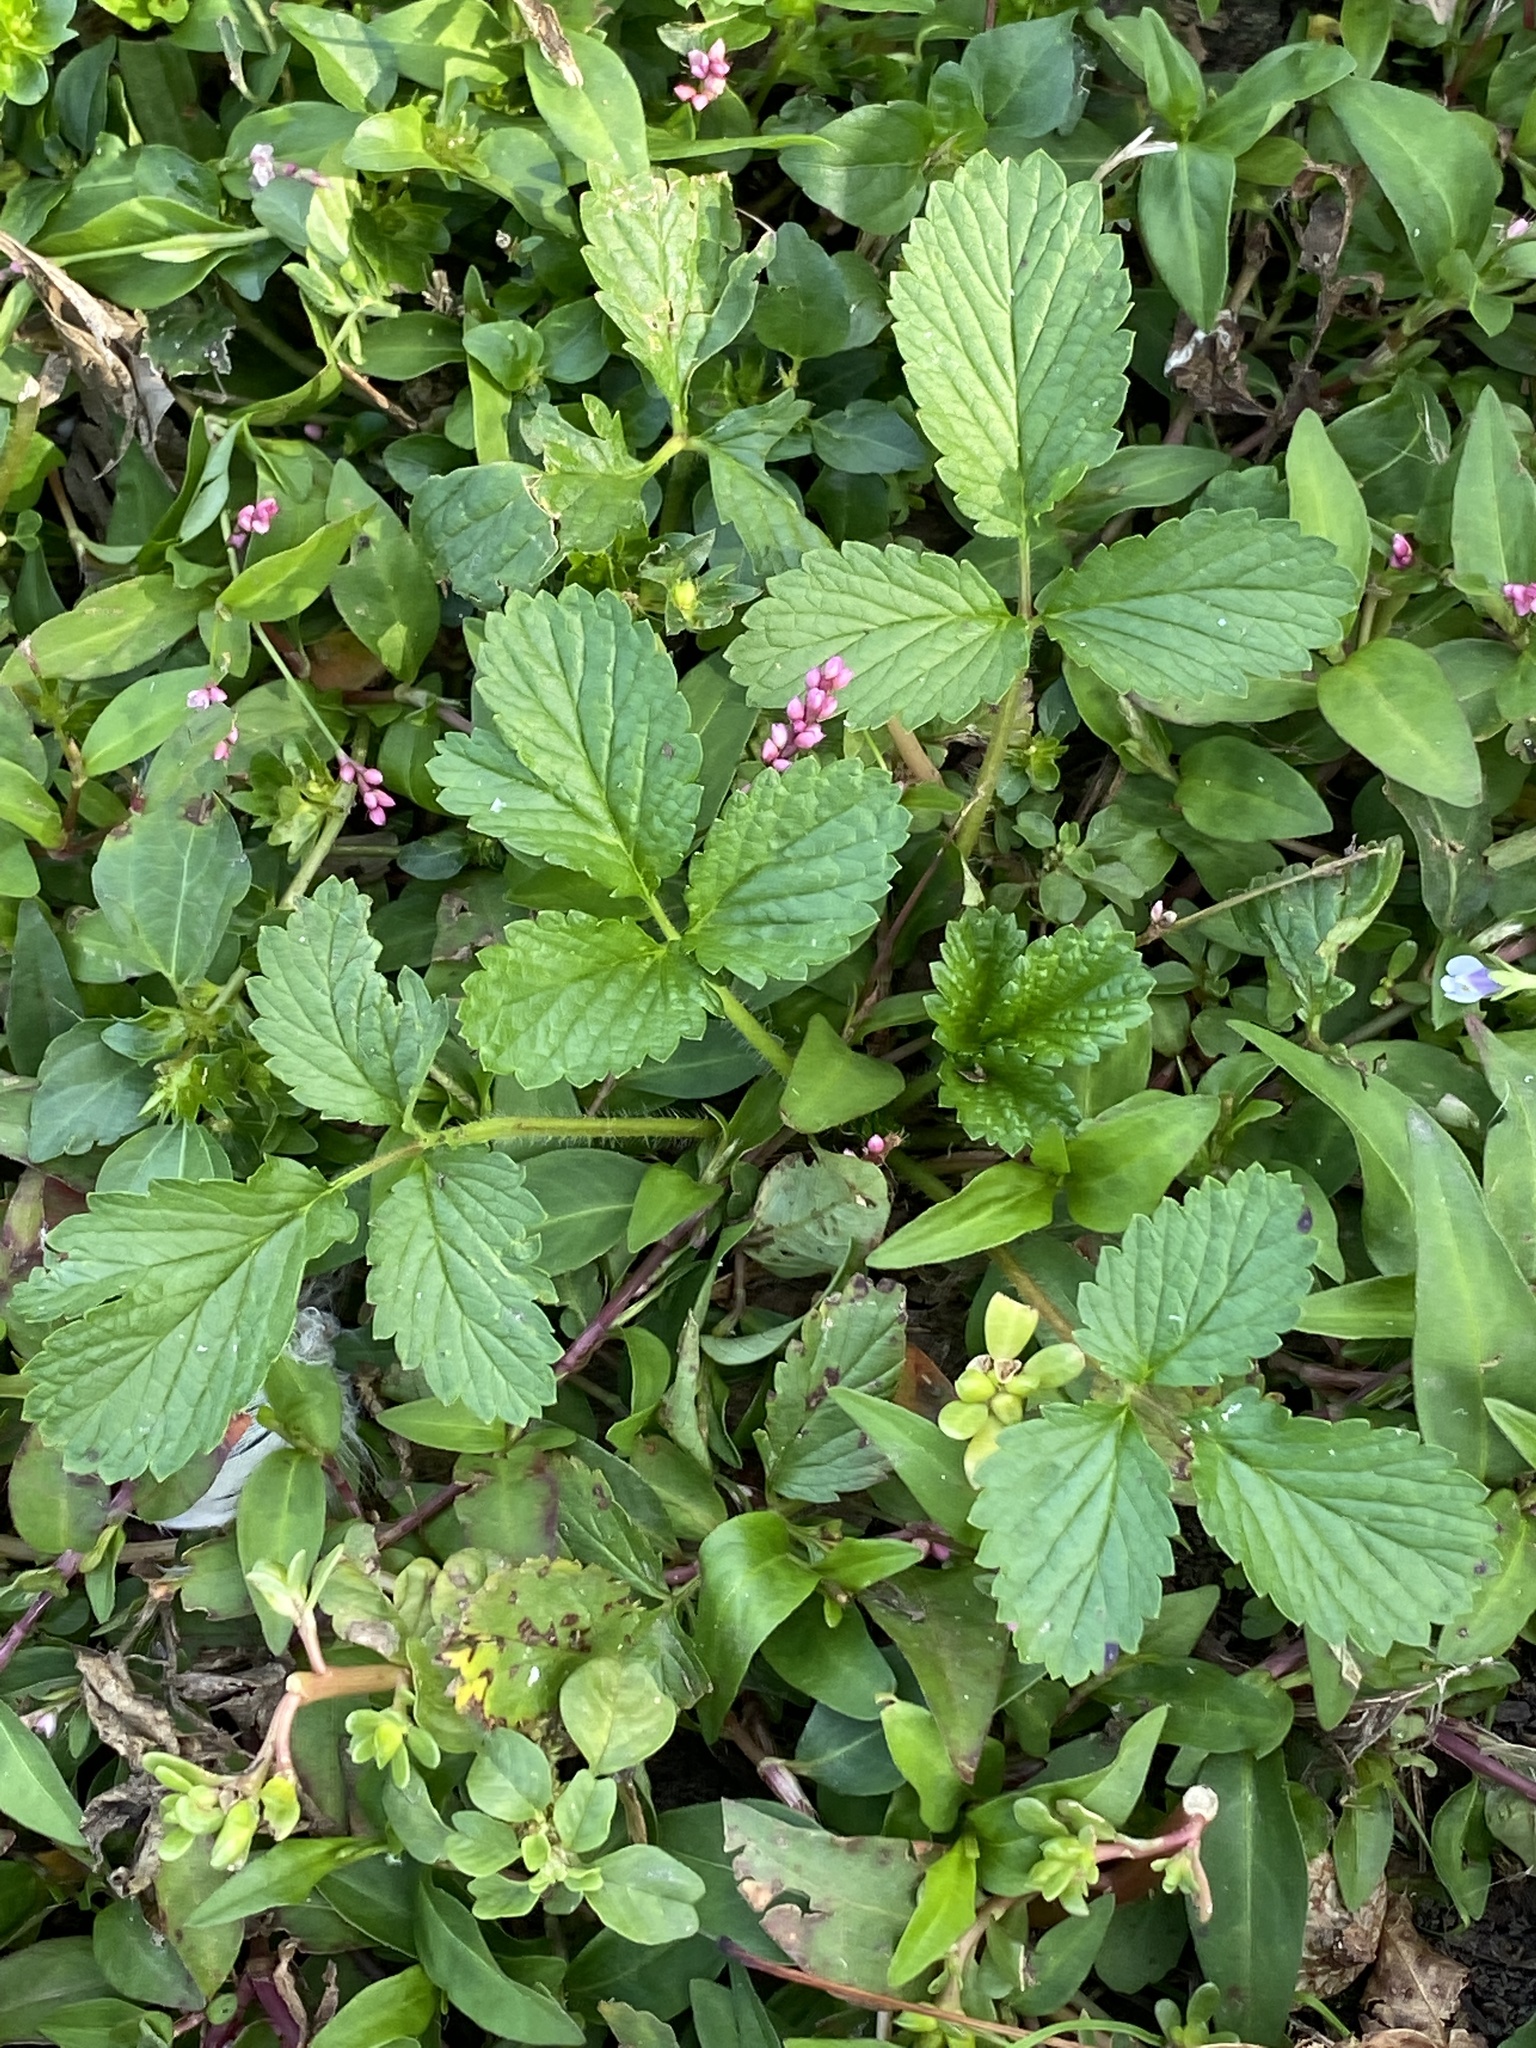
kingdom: Plantae
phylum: Tracheophyta
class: Magnoliopsida
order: Rosales
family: Rosaceae
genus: Potentilla
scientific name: Potentilla indica
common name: Yellow-flowered strawberry
